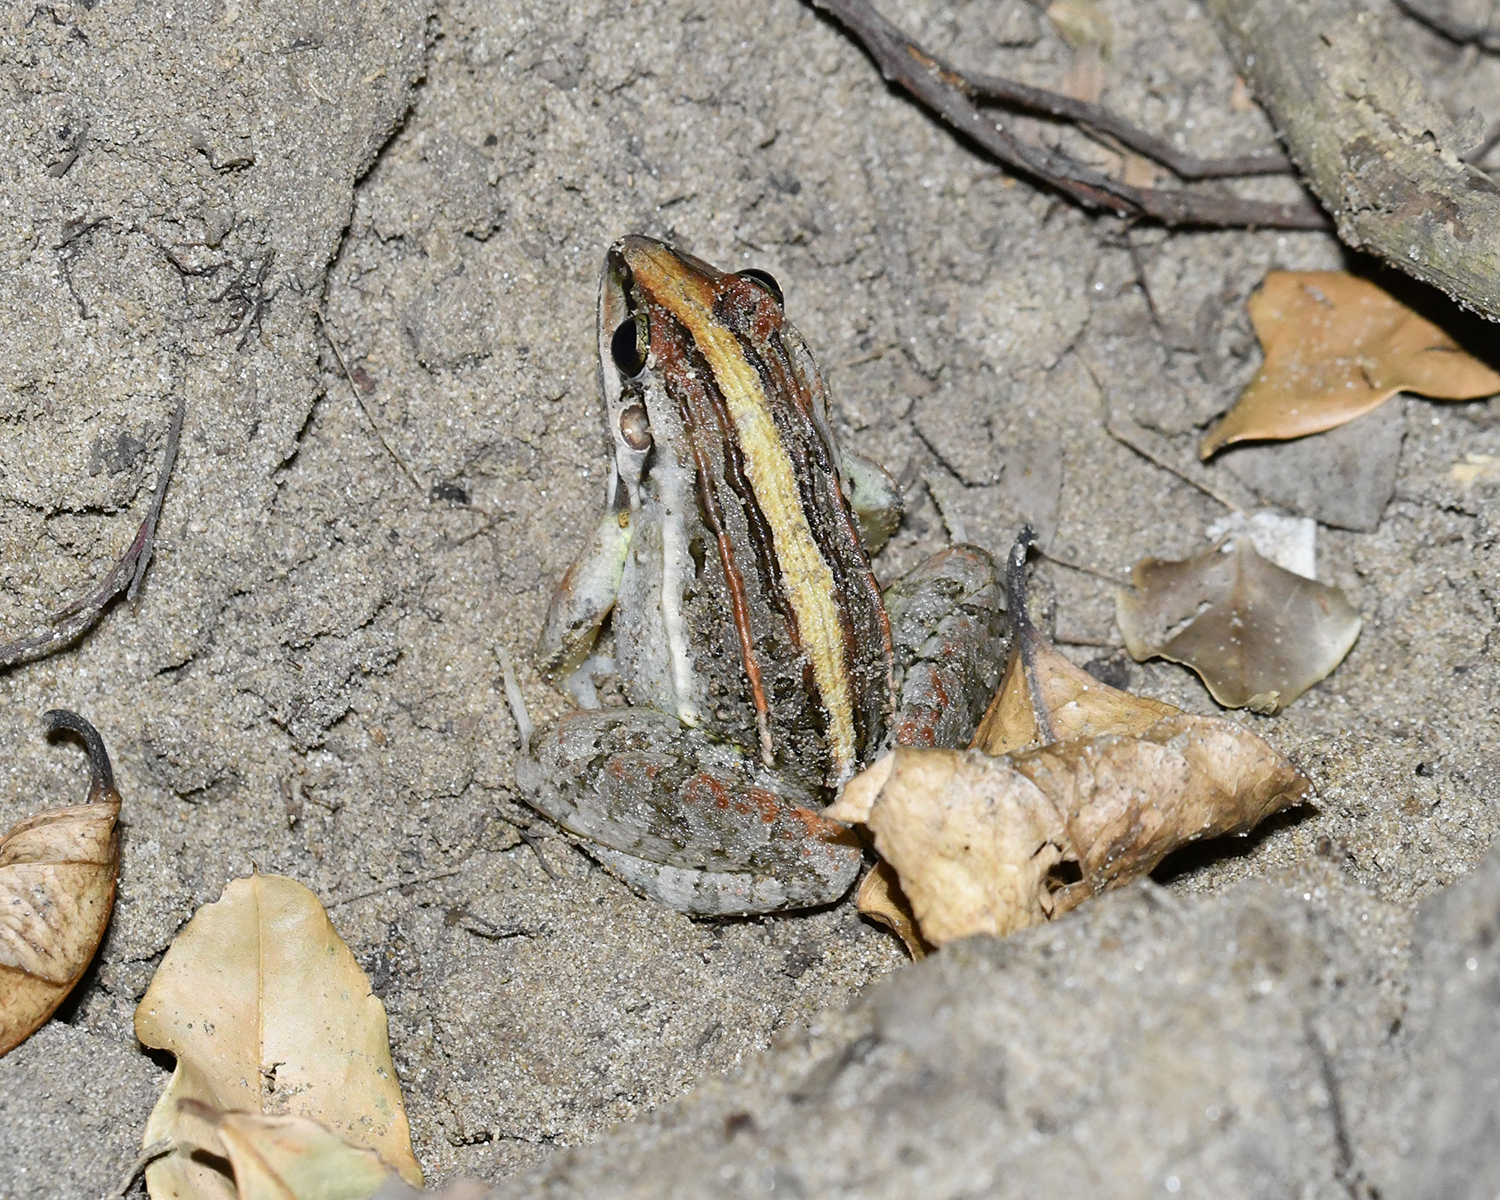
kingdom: Animalia
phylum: Chordata
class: Amphibia
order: Anura
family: Leptodactylidae
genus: Leptodactylus
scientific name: Leptodactylus fuscus
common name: Rufous frog
